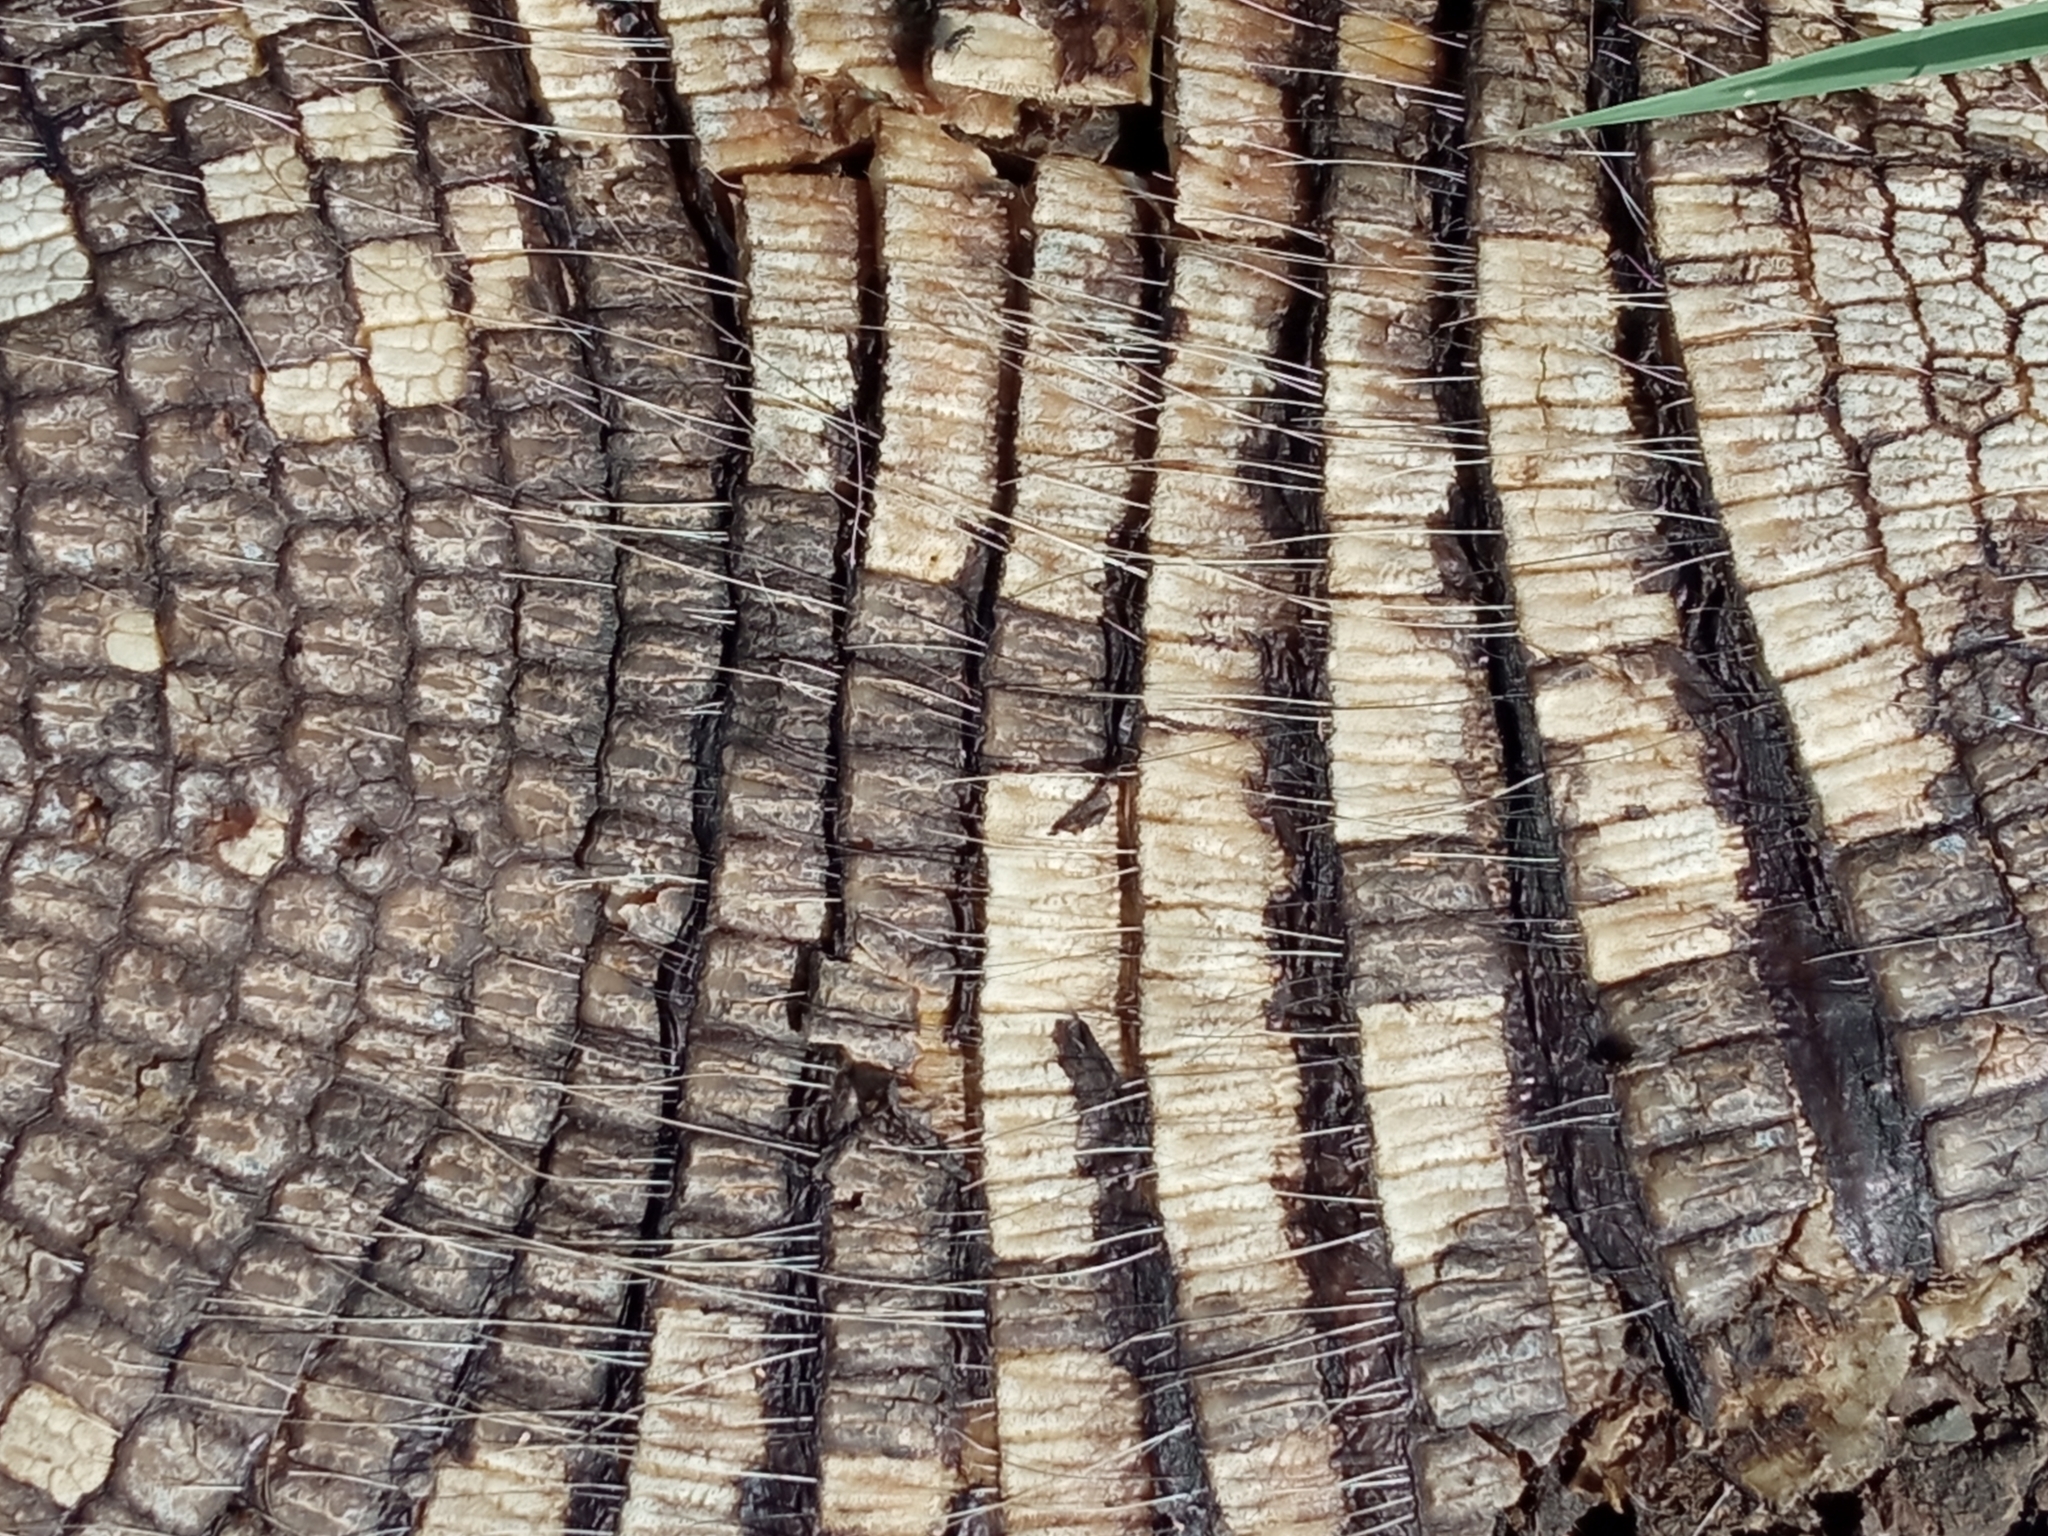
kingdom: Animalia
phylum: Chordata
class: Mammalia
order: Cingulata
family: Dasypodidae
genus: Euphractus
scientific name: Euphractus sexcinctus
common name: Six-banded armadillo
